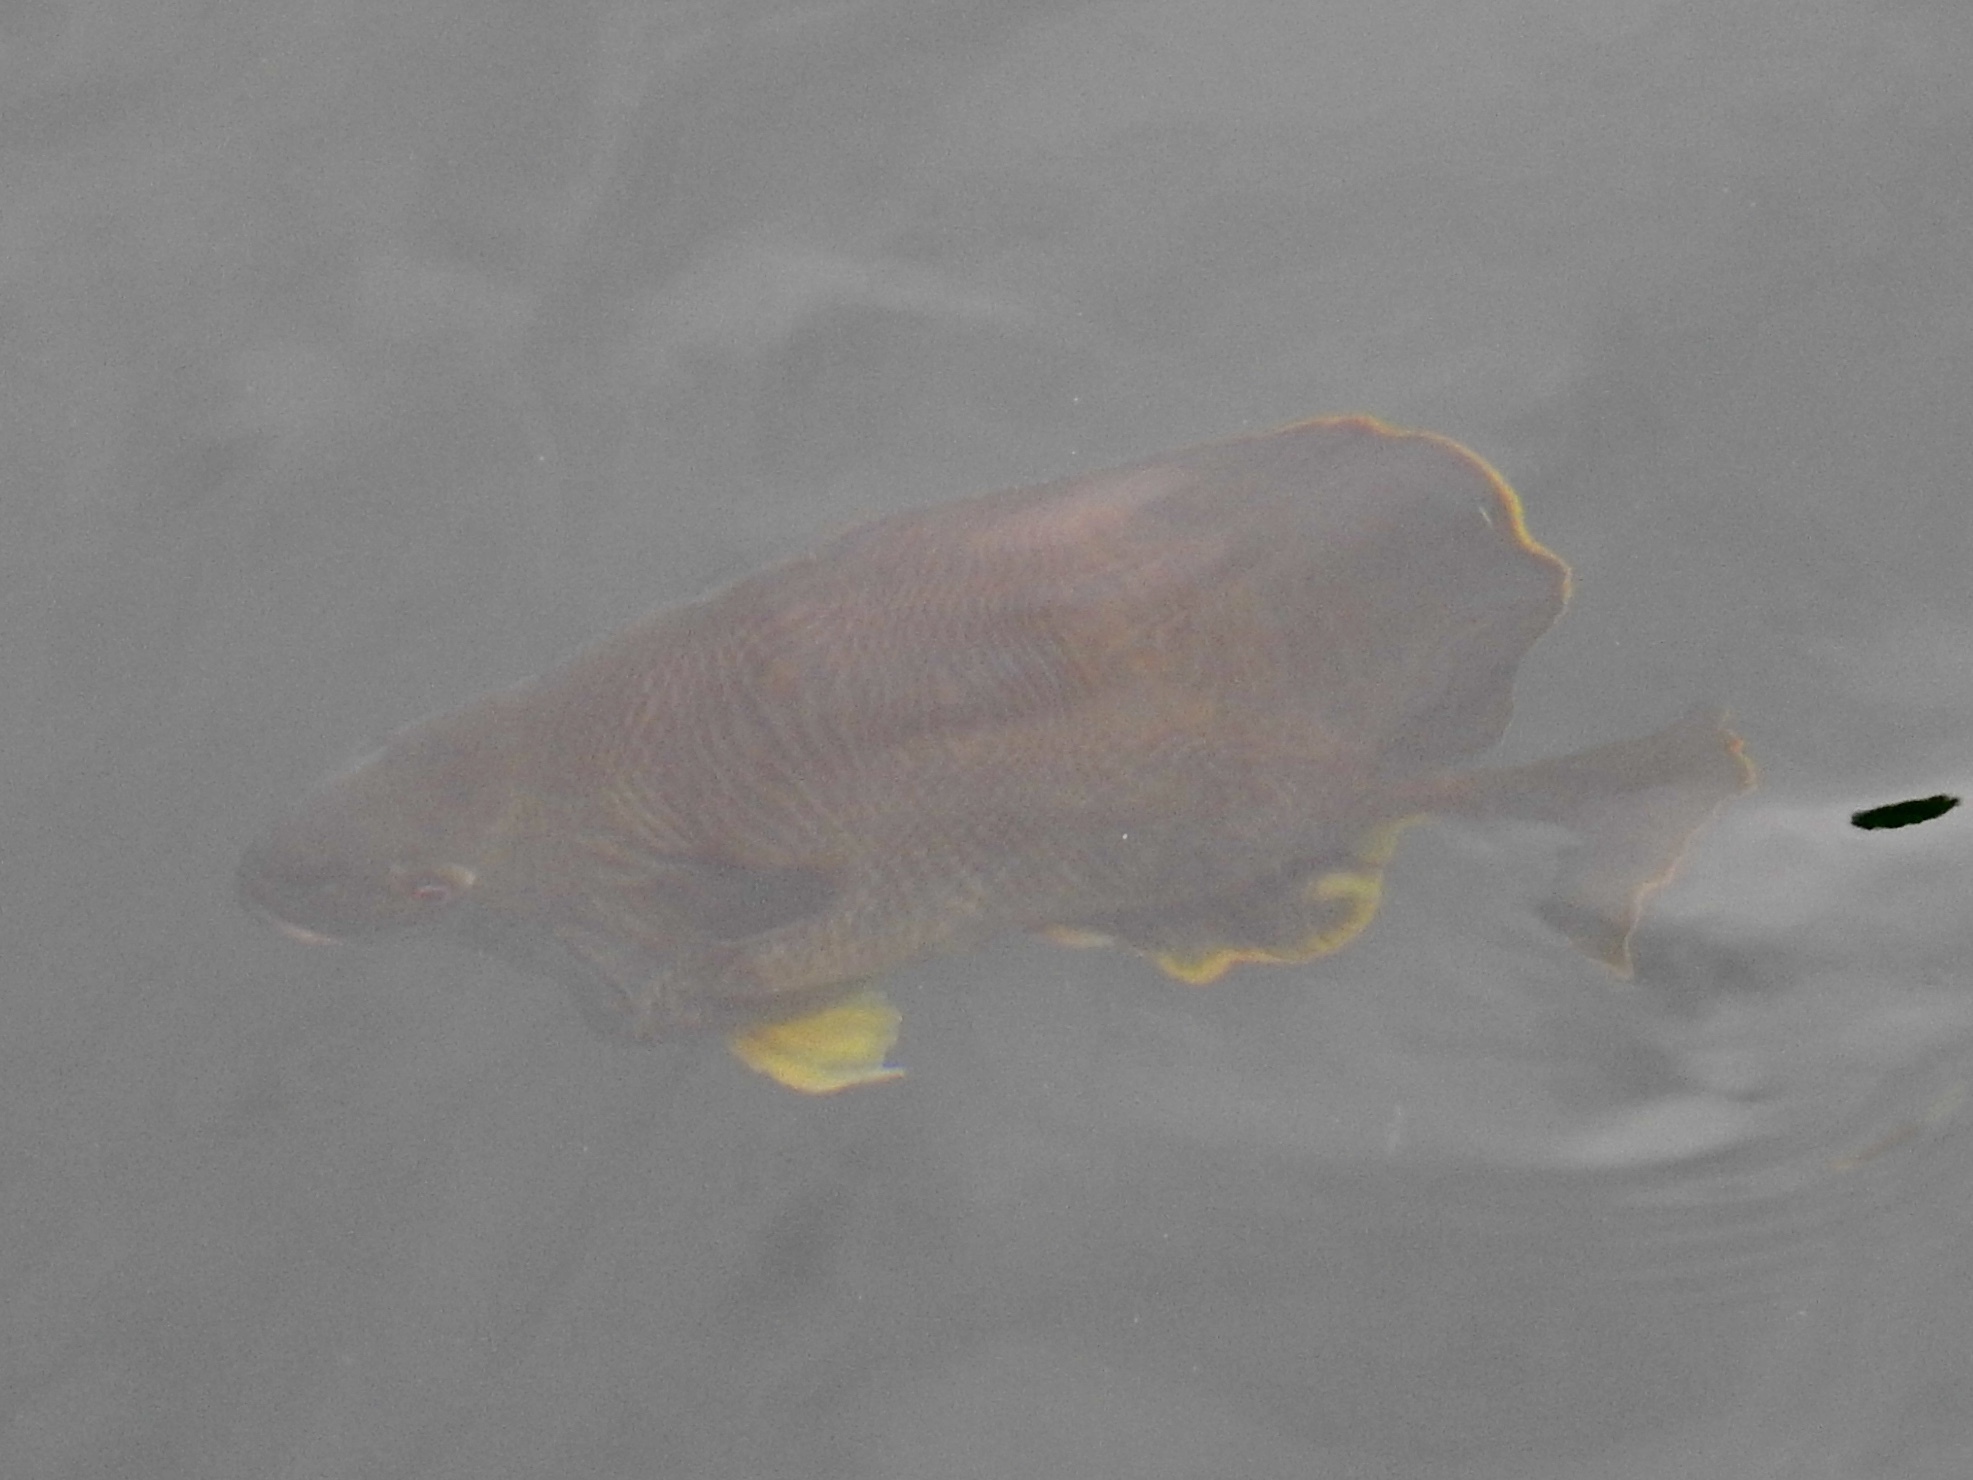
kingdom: Animalia
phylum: Chordata
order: Perciformes
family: Centrarchidae
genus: Lepomis
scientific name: Lepomis cyanellus
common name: Green sunfish
